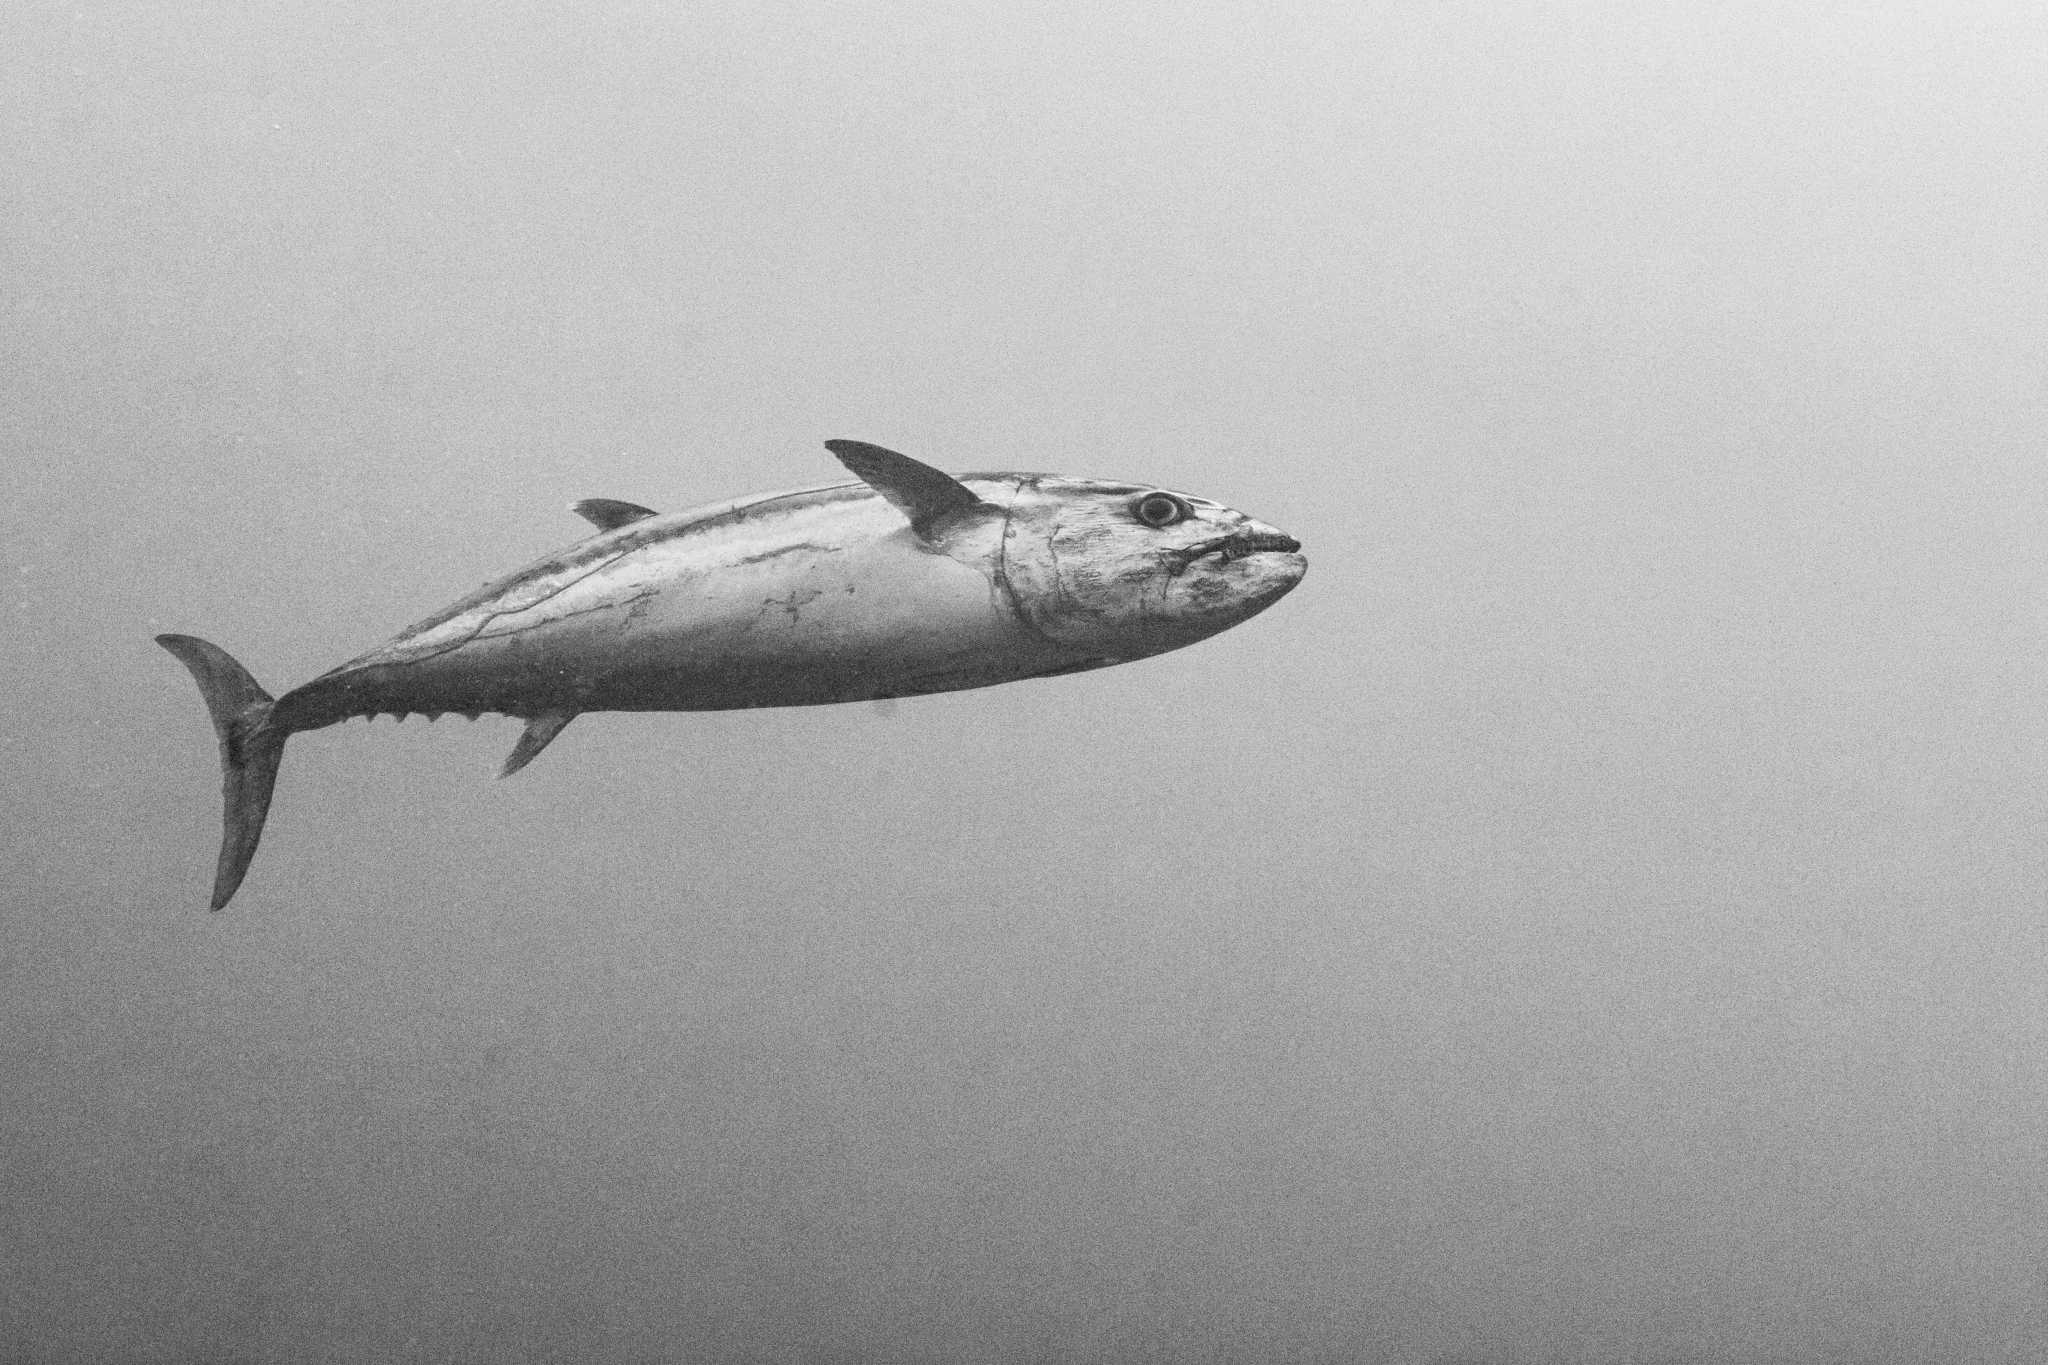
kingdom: Animalia
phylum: Chordata
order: Perciformes
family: Scombridae
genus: Gymnosarda
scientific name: Gymnosarda unicolor
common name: Dogtooth tuna
